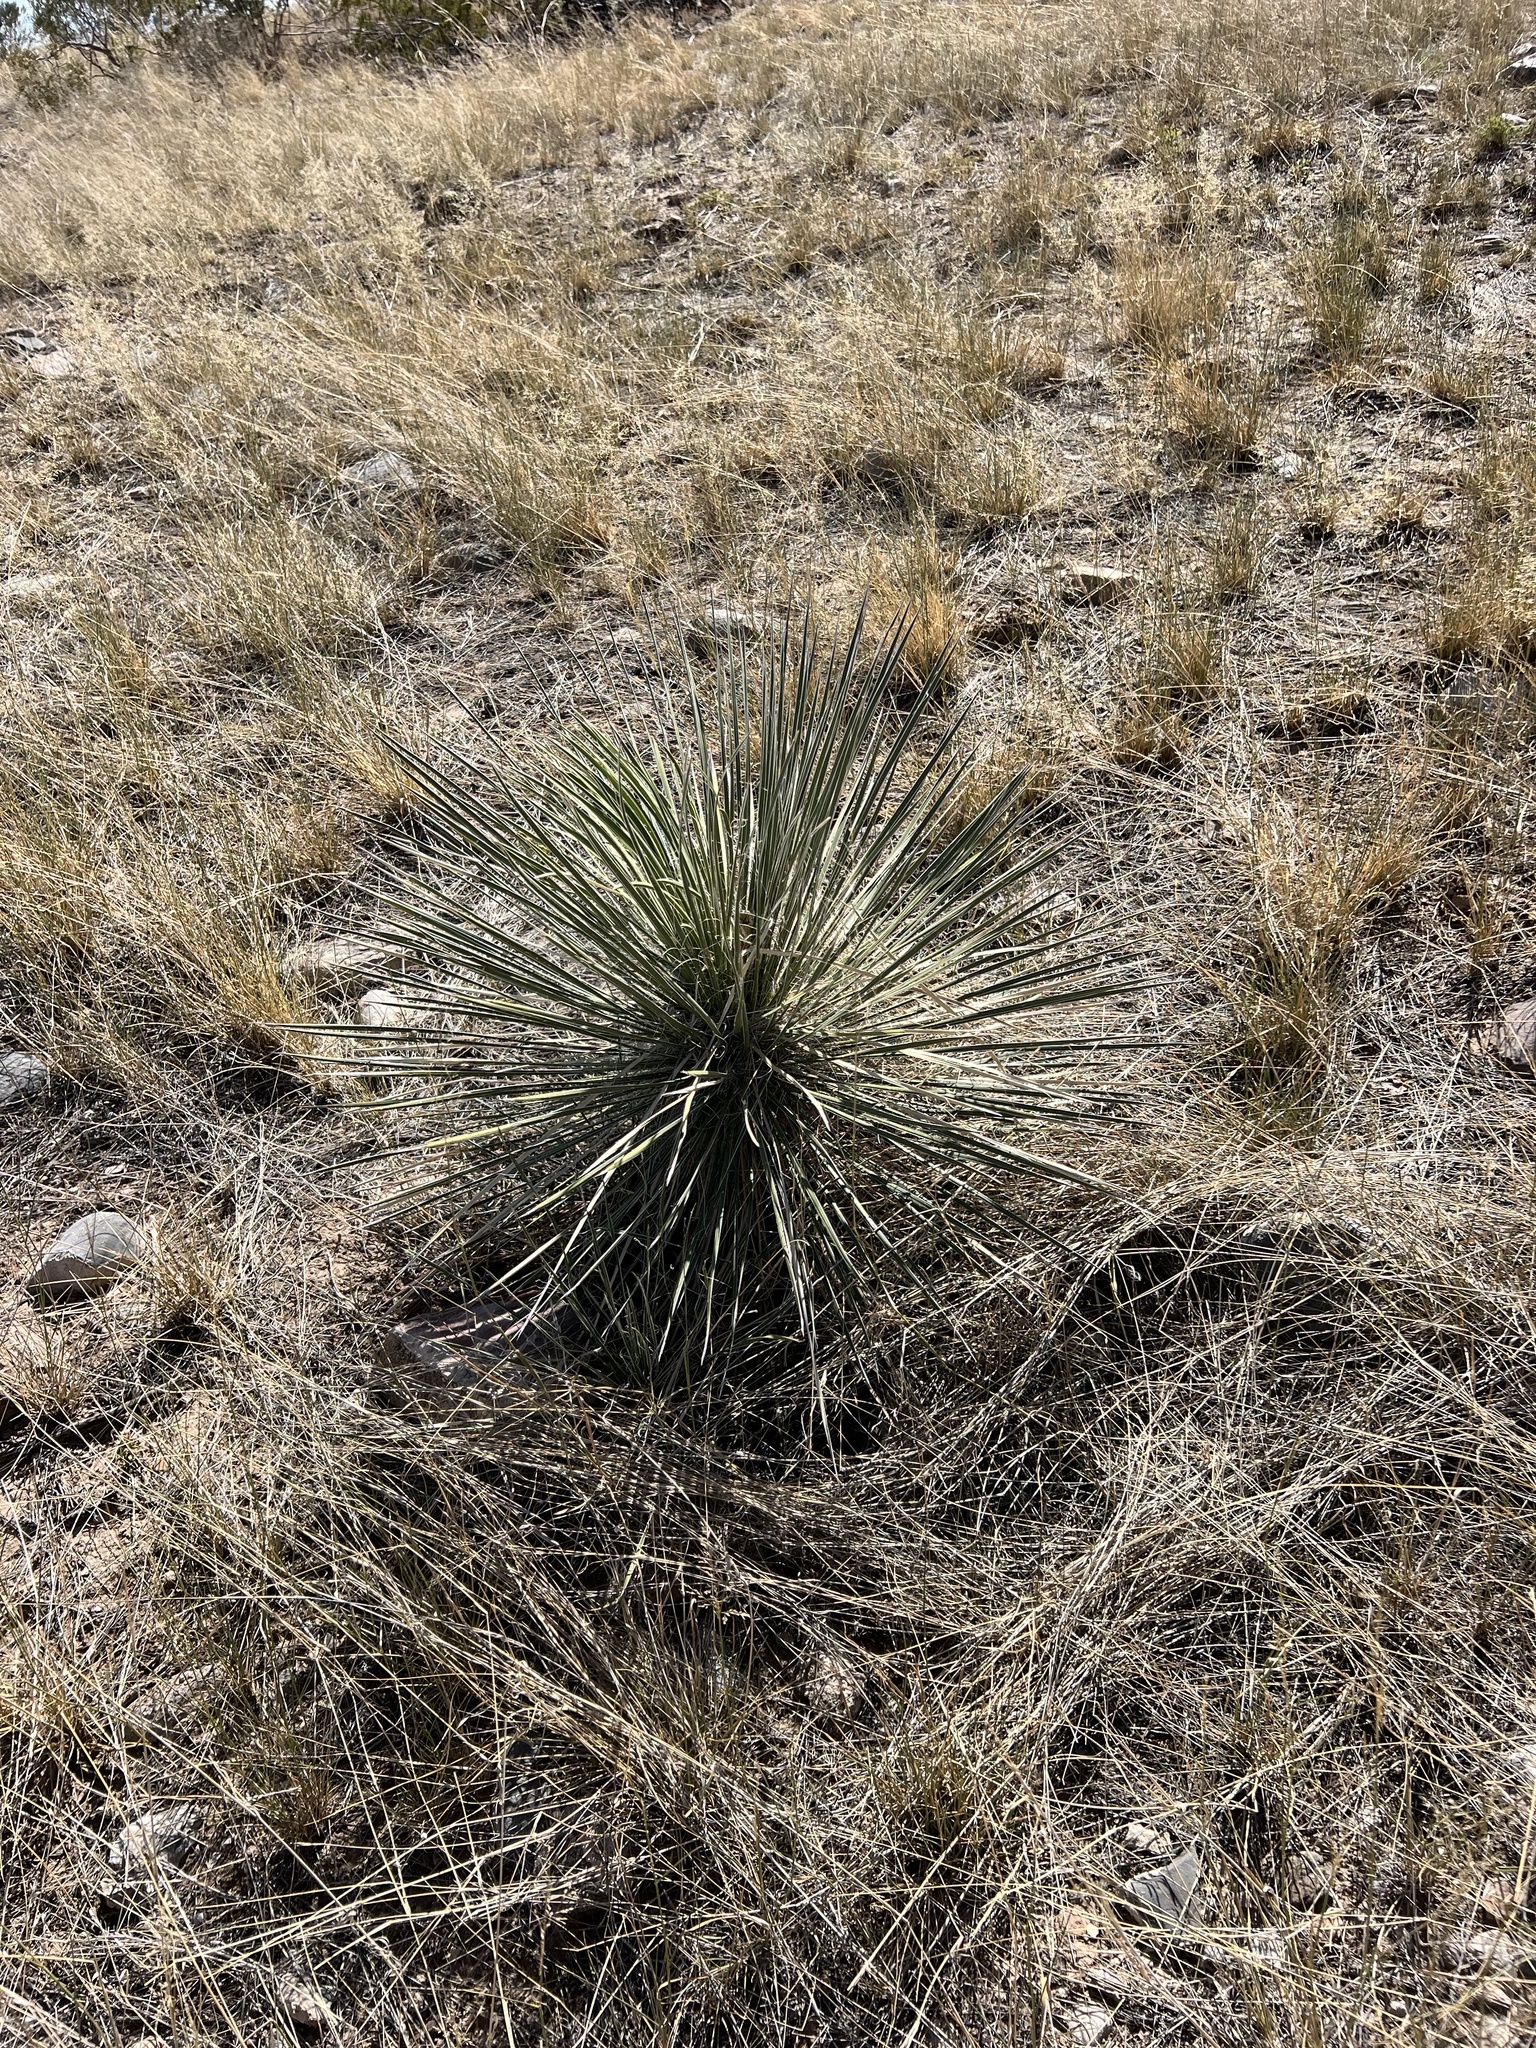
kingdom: Plantae
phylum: Tracheophyta
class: Liliopsida
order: Asparagales
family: Asparagaceae
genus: Yucca
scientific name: Yucca elata
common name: Palmella
